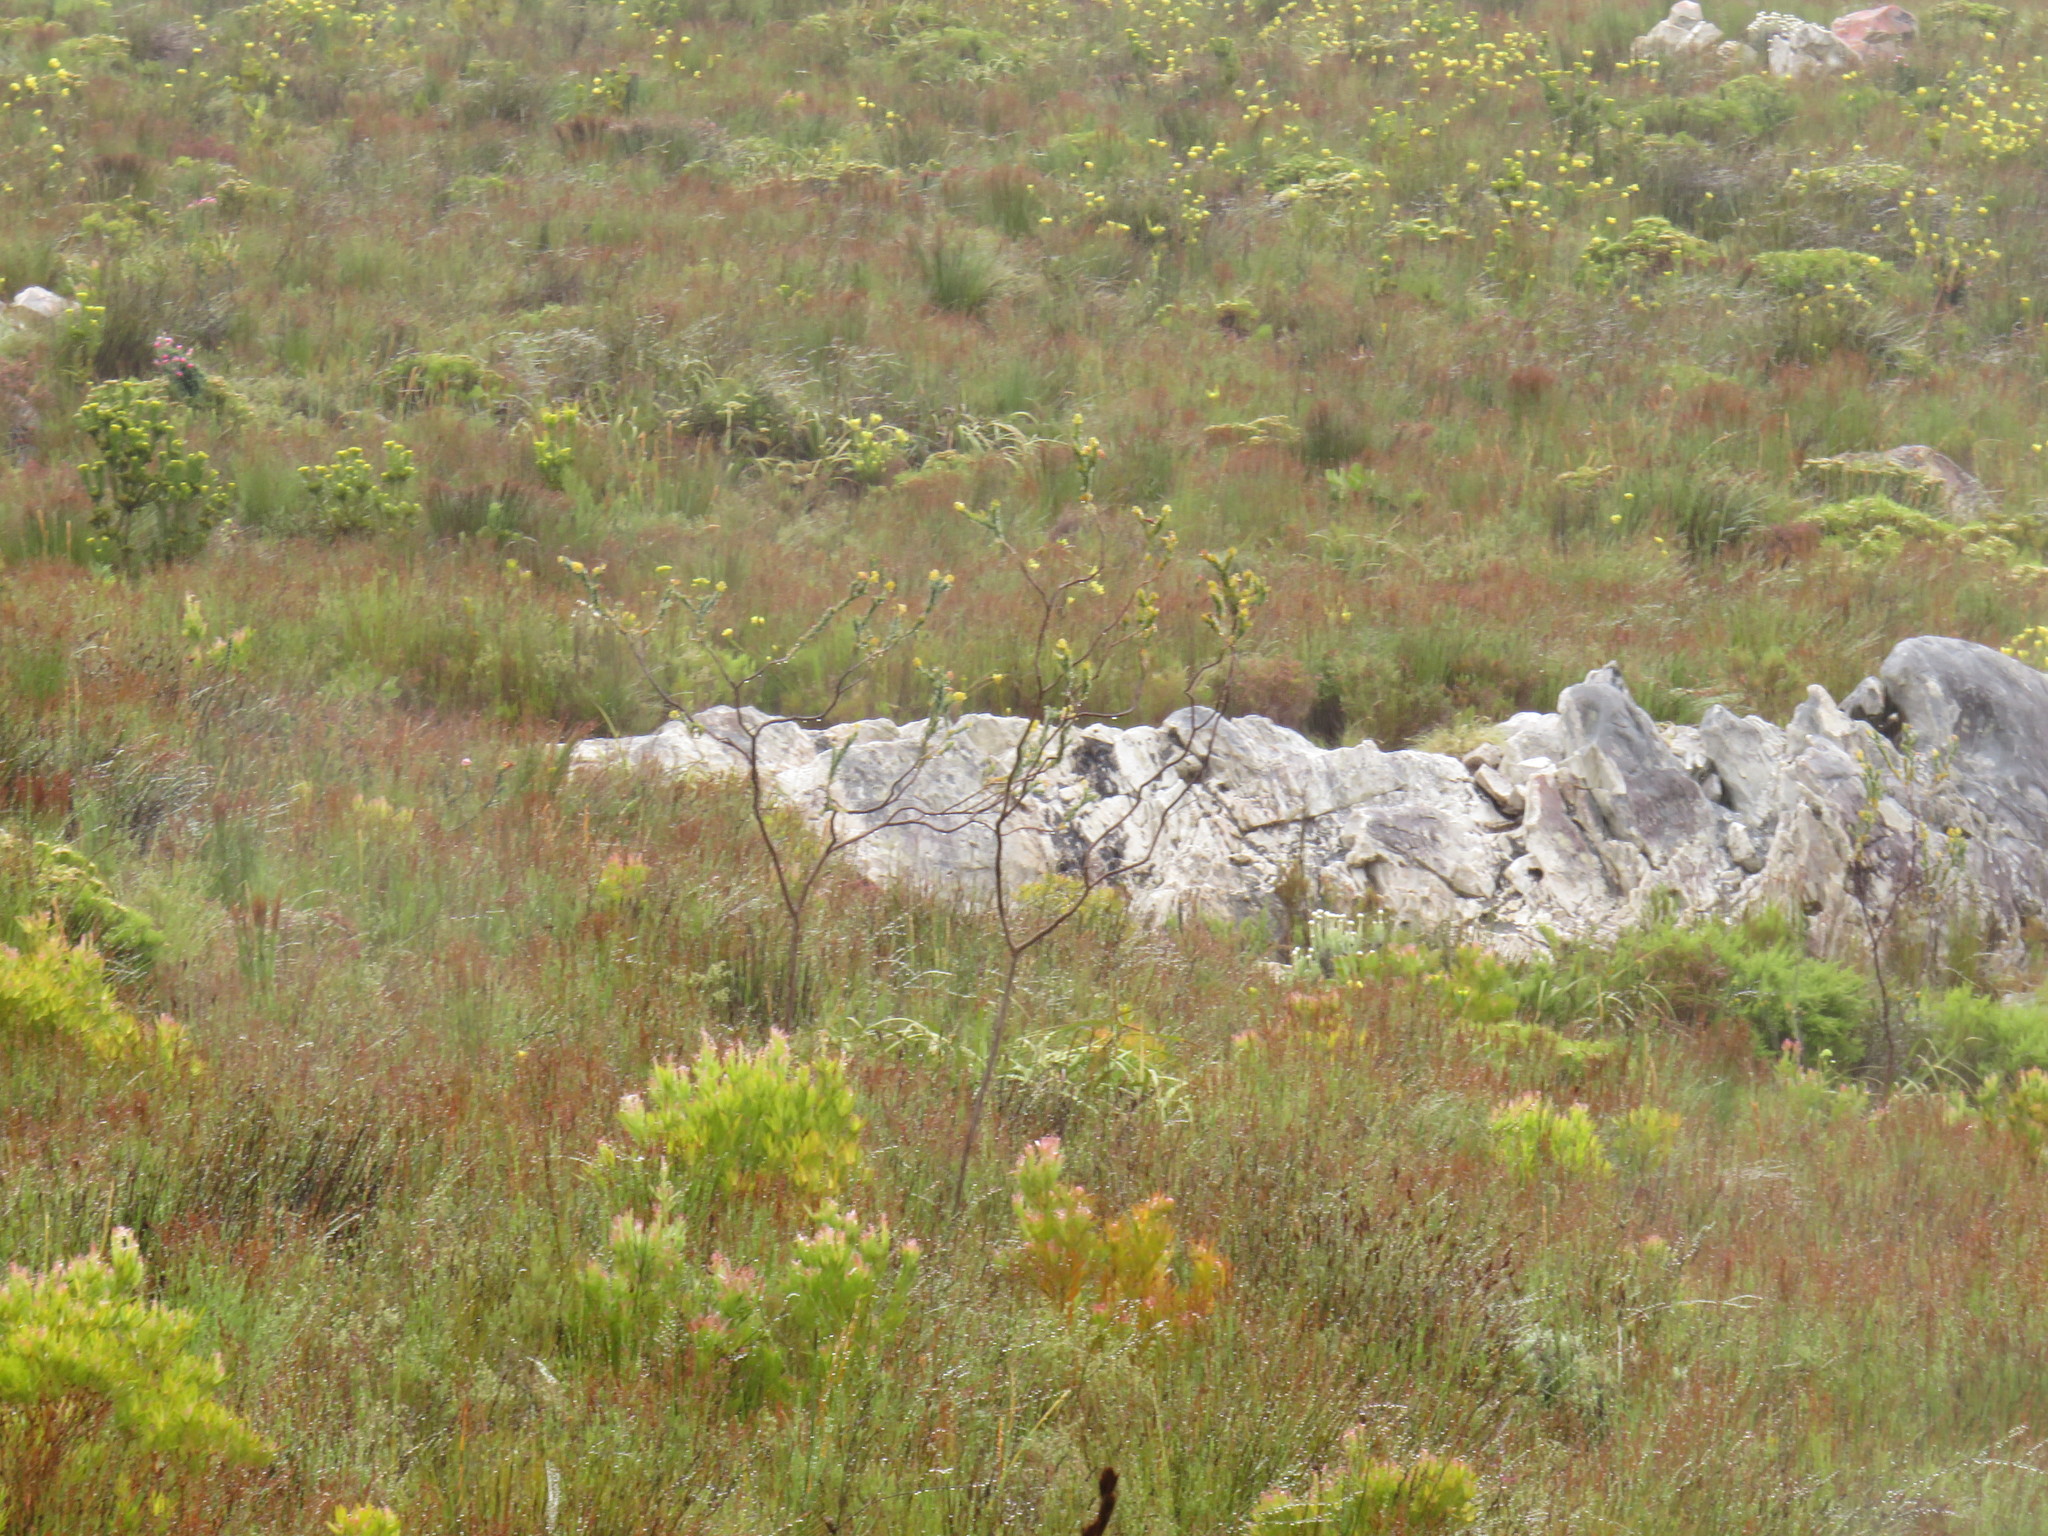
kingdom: Plantae
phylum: Tracheophyta
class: Liliopsida
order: Poales
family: Cyperaceae
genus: Tetraria
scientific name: Tetraria thermalis
